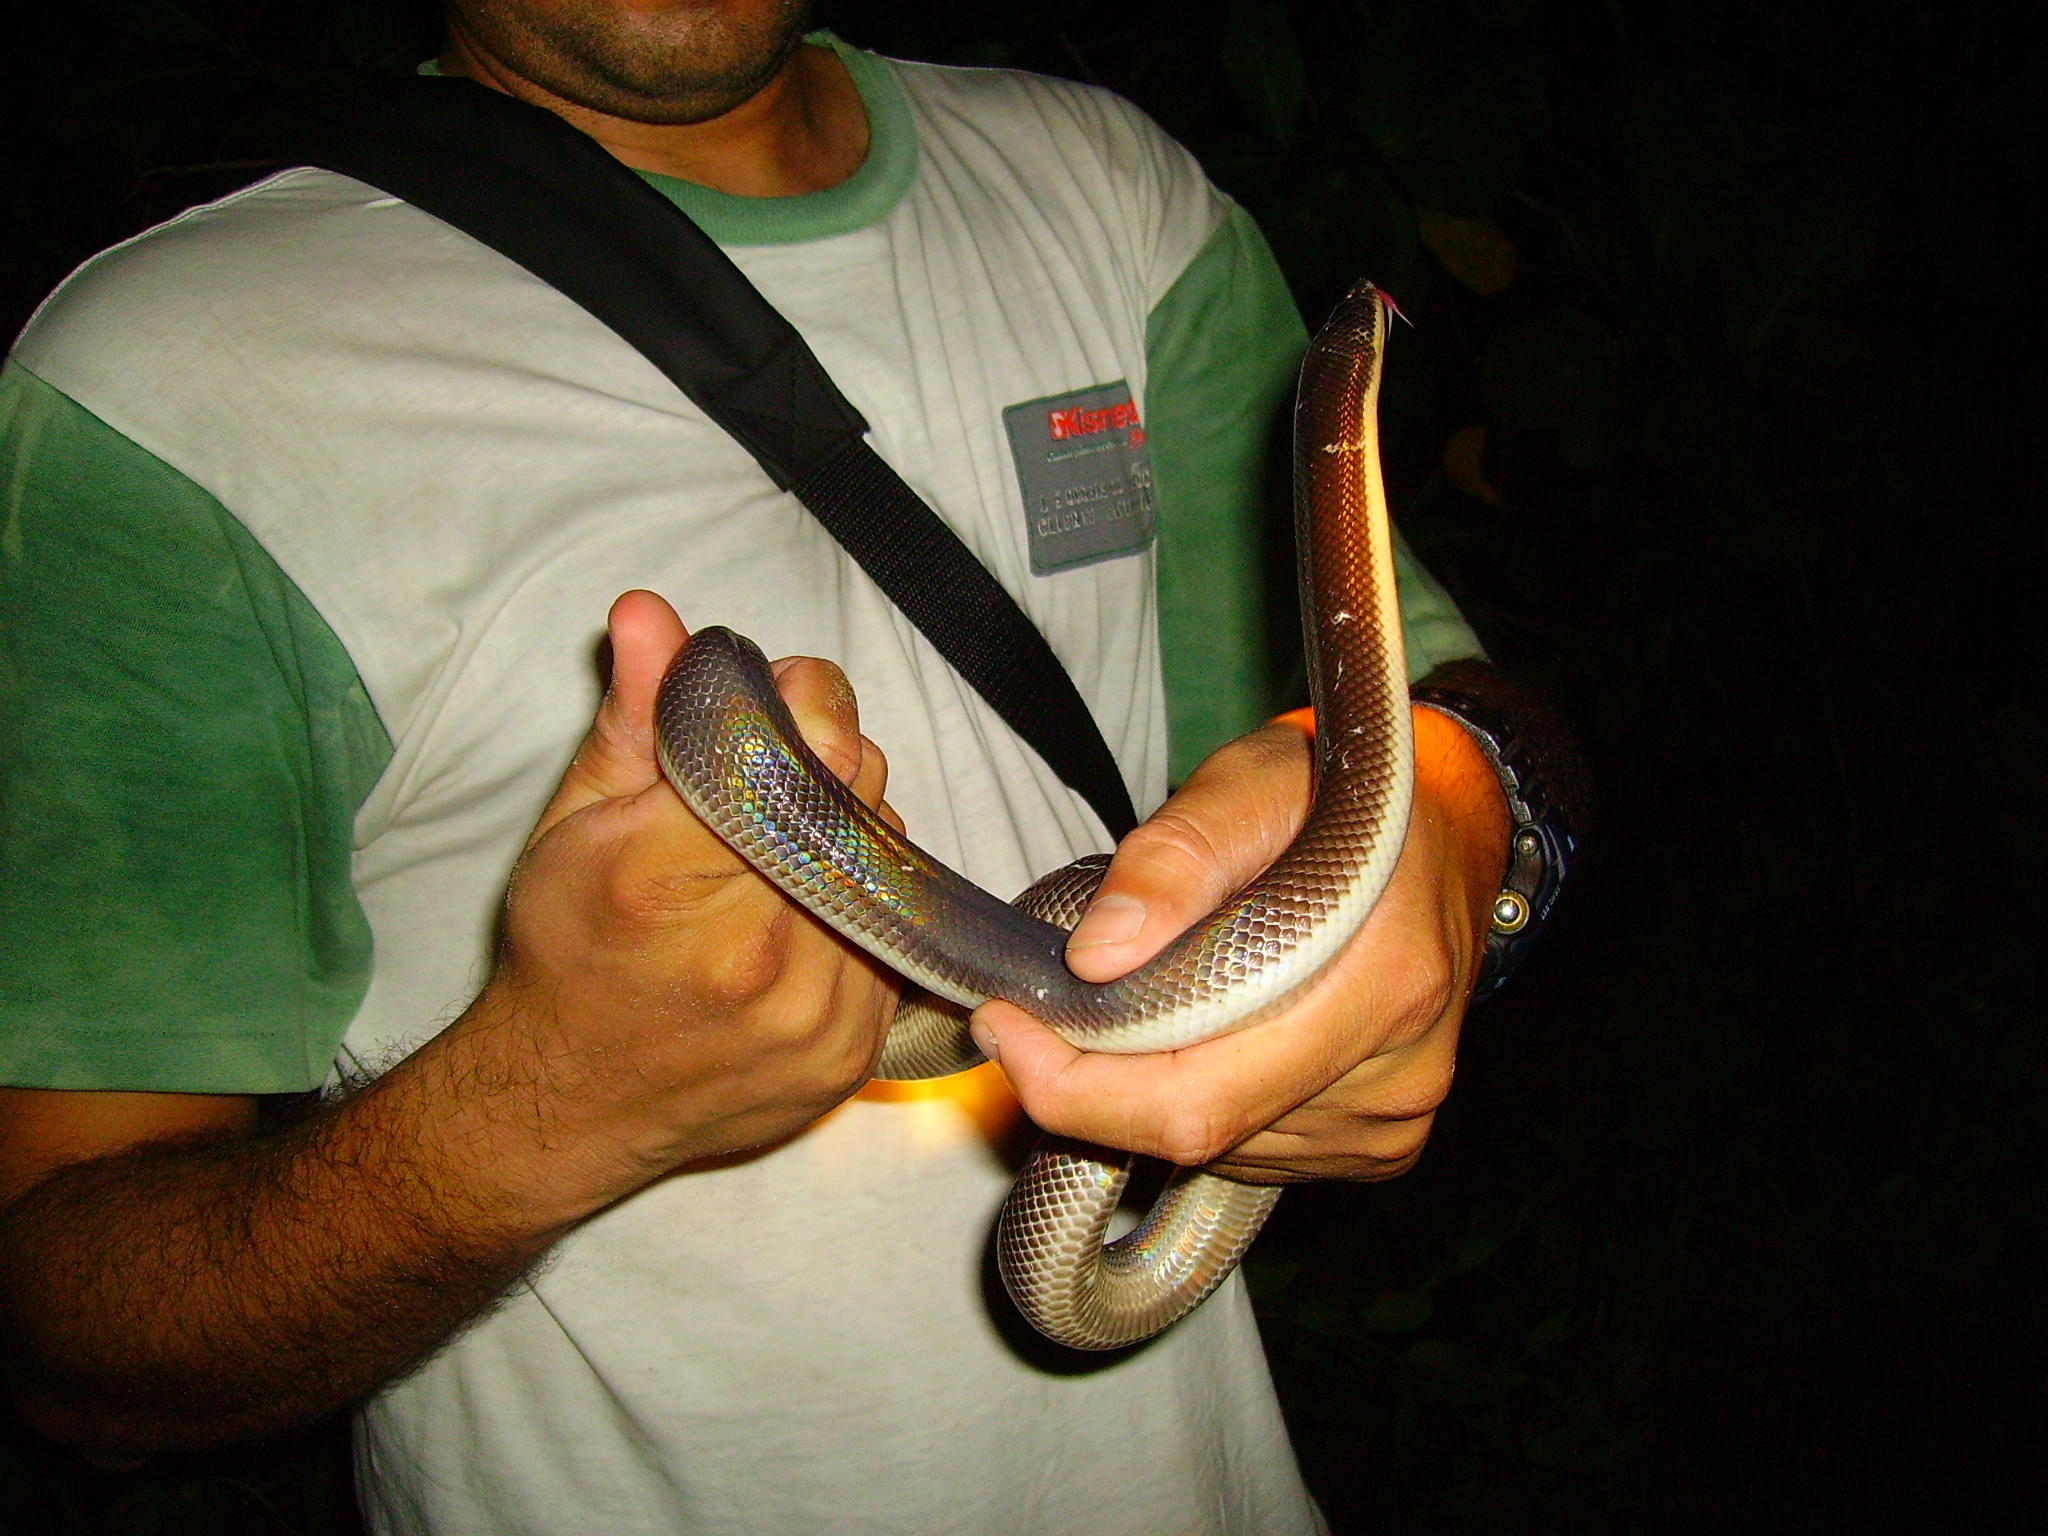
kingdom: Animalia
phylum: Chordata
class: Squamata
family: Loxocemidae
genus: Loxocemus
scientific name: Loxocemus bicolor
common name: Mexican burrowing python
